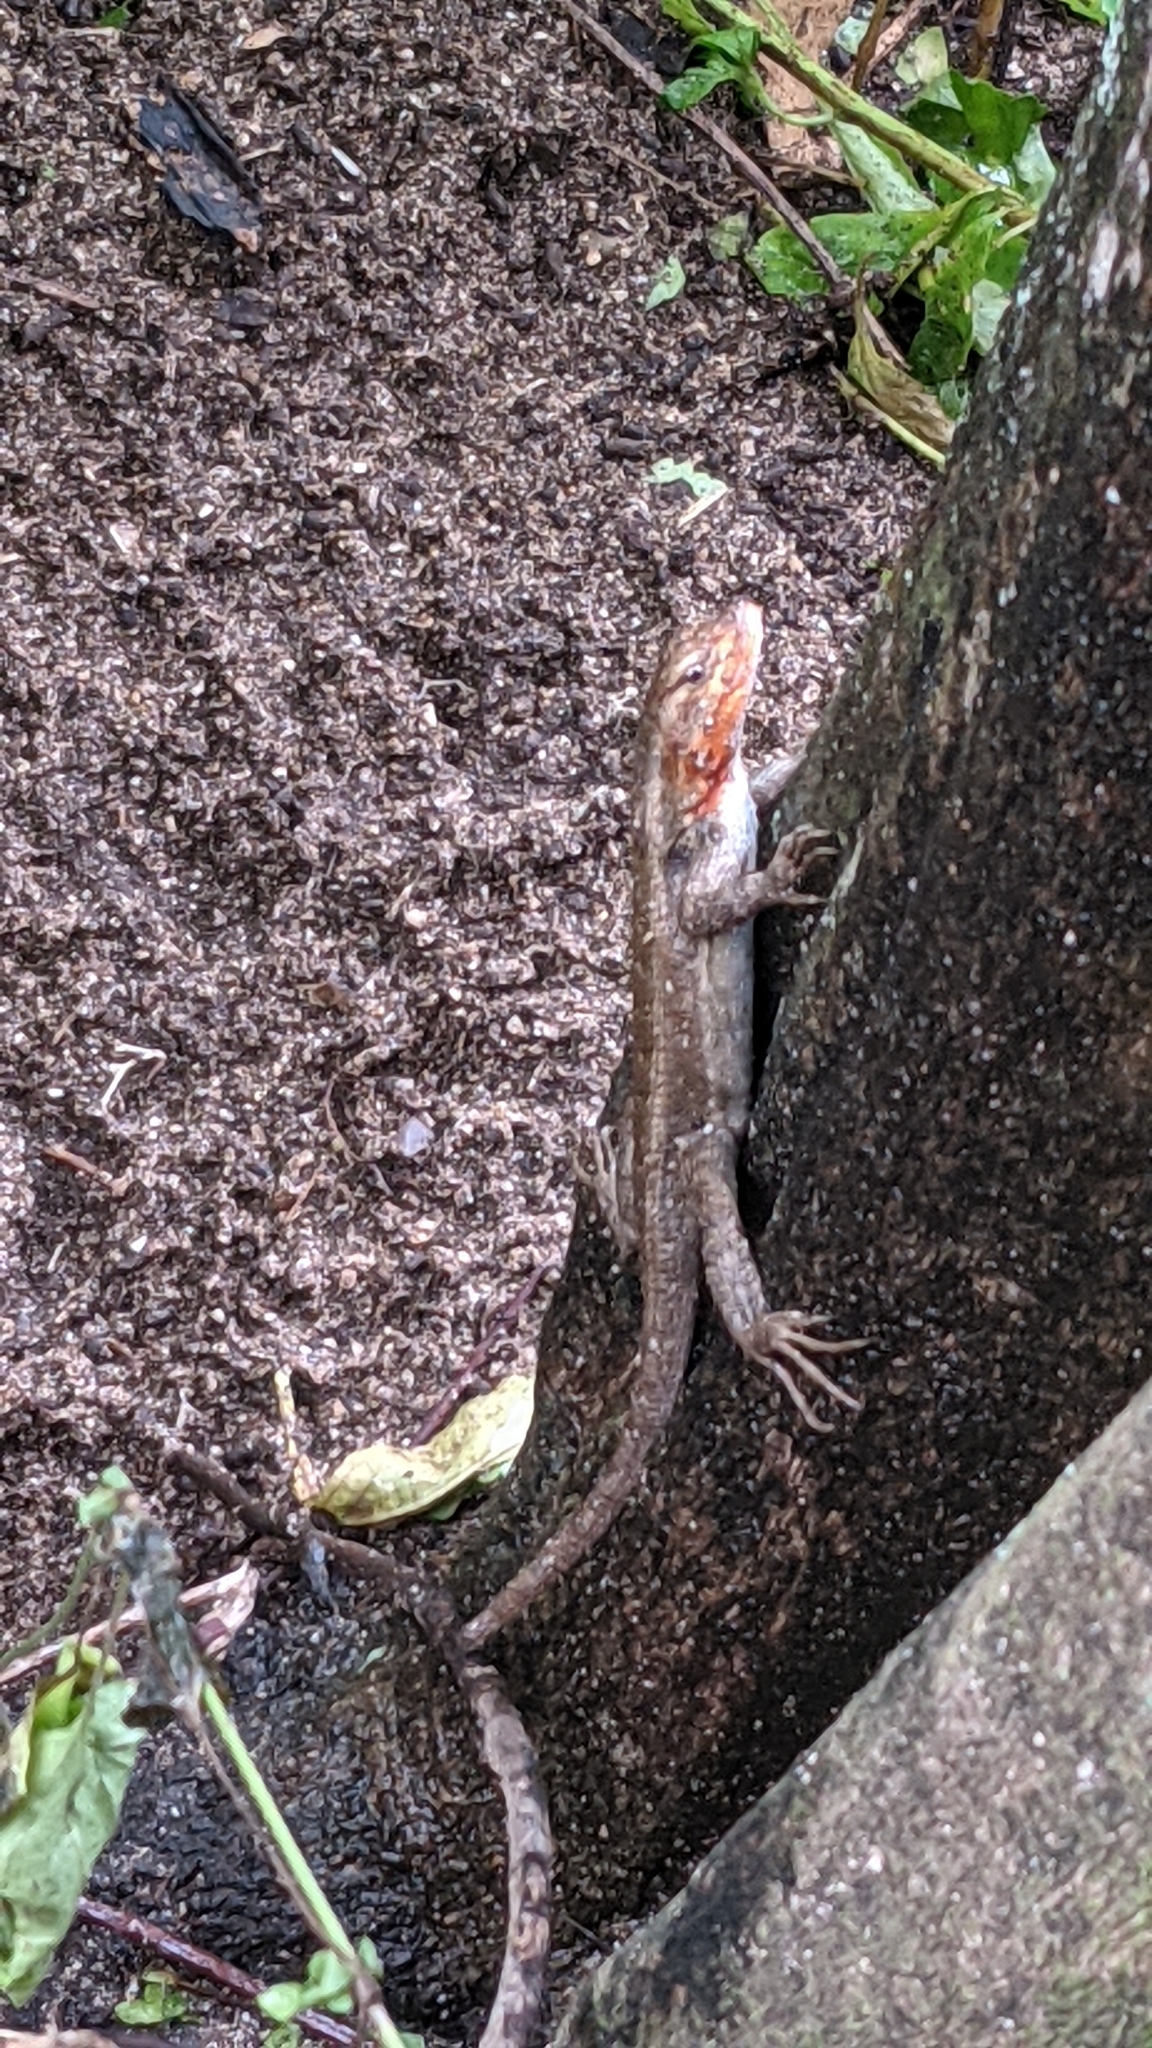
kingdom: Animalia
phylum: Chordata
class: Squamata
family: Phrynosomatidae
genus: Sceloporus
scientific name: Sceloporus variabilis
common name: Rosebelly lizard
